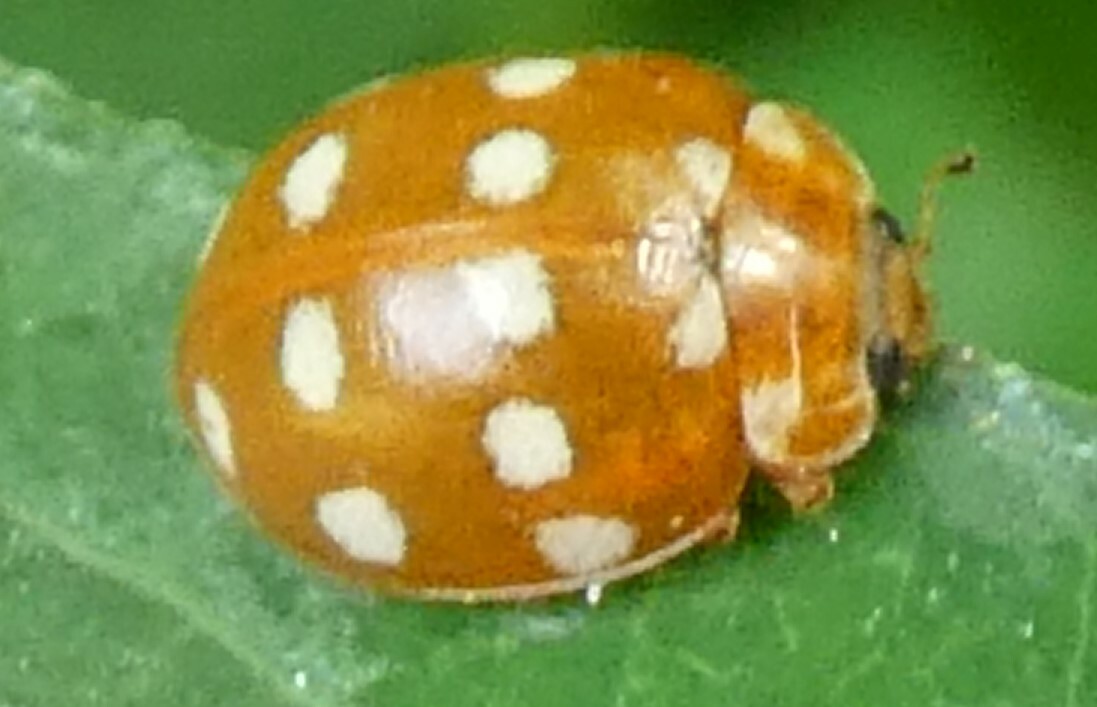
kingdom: Animalia
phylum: Arthropoda
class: Insecta
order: Coleoptera
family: Coccinellidae
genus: Calvia
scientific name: Calvia quatuordecimguttata
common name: Cream-spot ladybird
